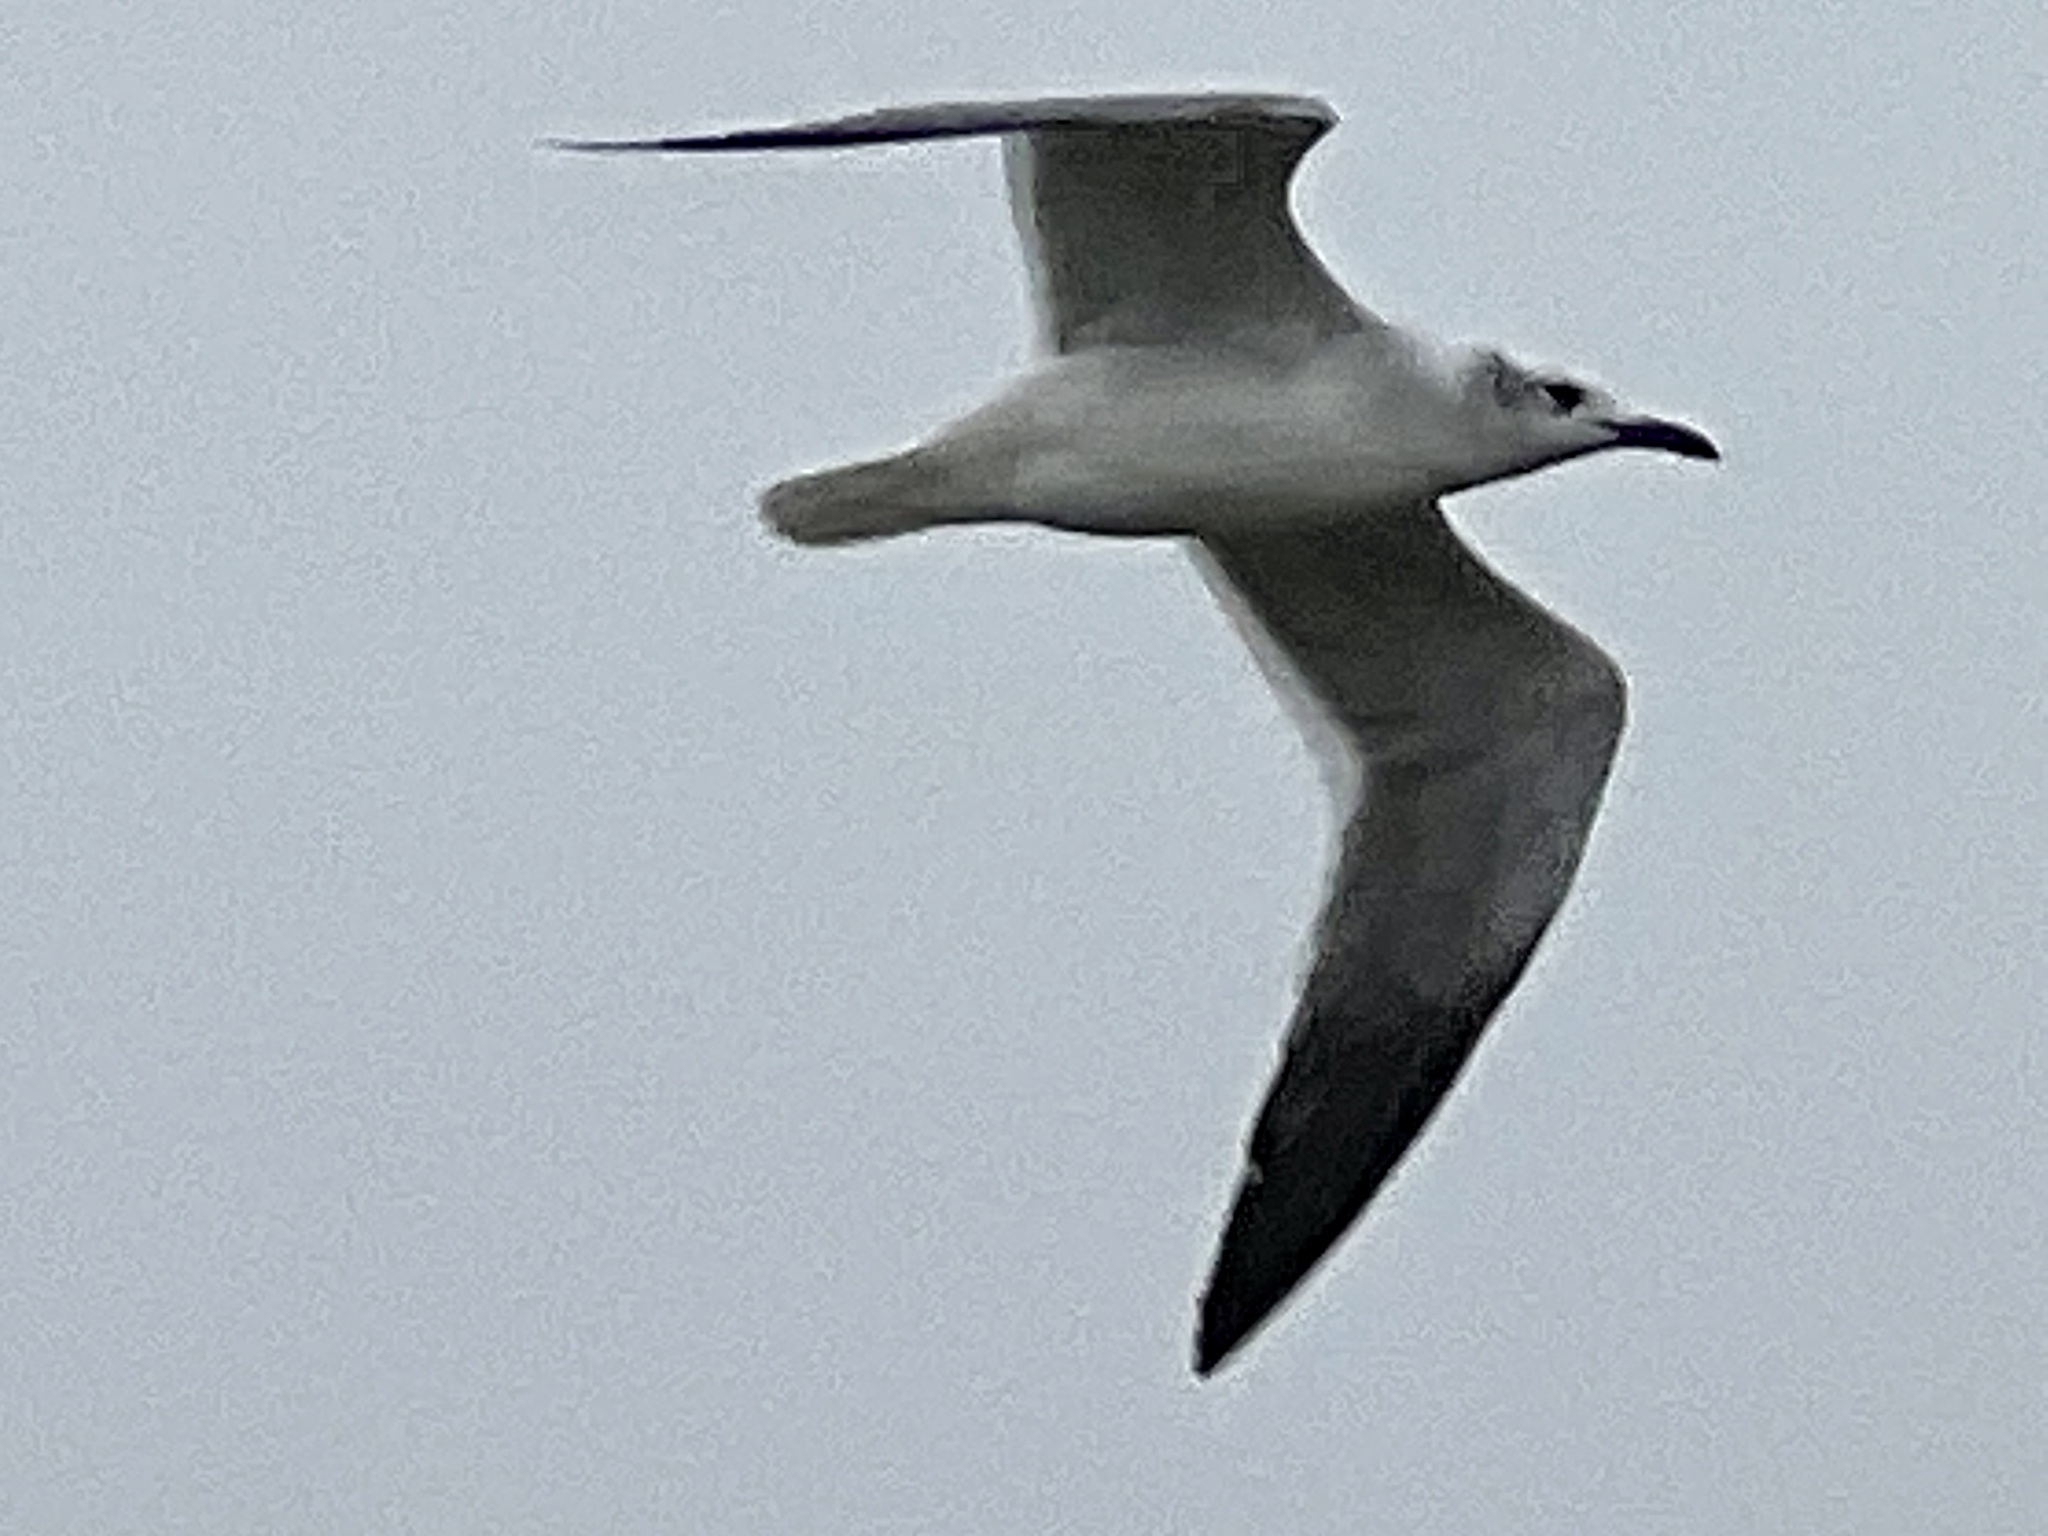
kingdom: Animalia
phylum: Chordata
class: Aves
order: Charadriiformes
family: Laridae
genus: Leucophaeus
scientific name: Leucophaeus atricilla
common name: Laughing gull
